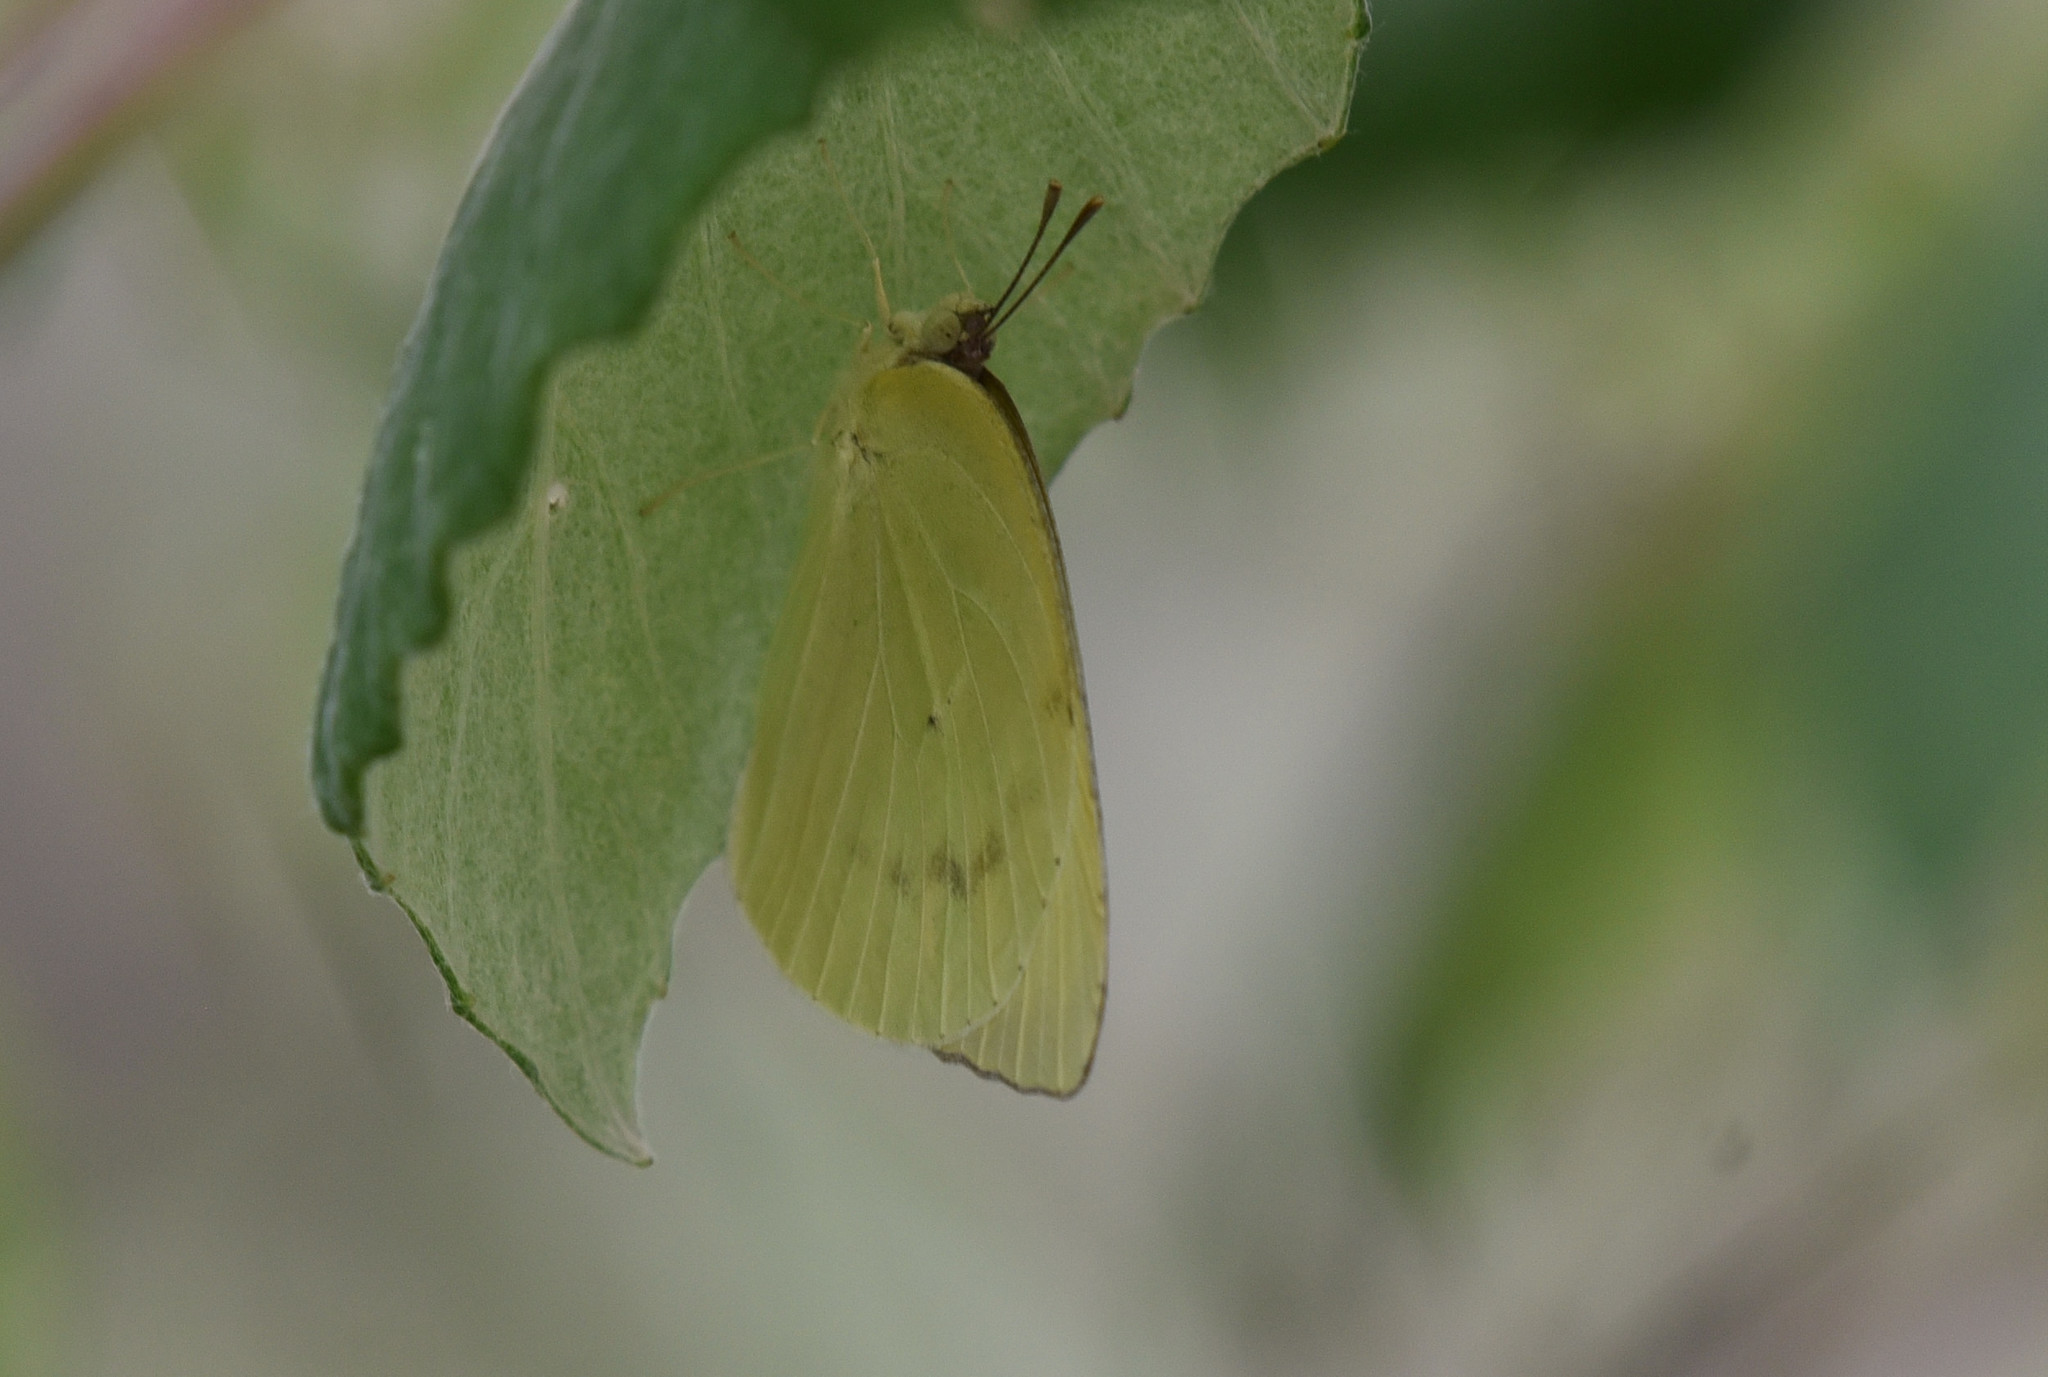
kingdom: Animalia
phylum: Arthropoda
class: Insecta
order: Lepidoptera
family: Pieridae
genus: Kricogonia
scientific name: Kricogonia lyside
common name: Guayacan sulphur,
